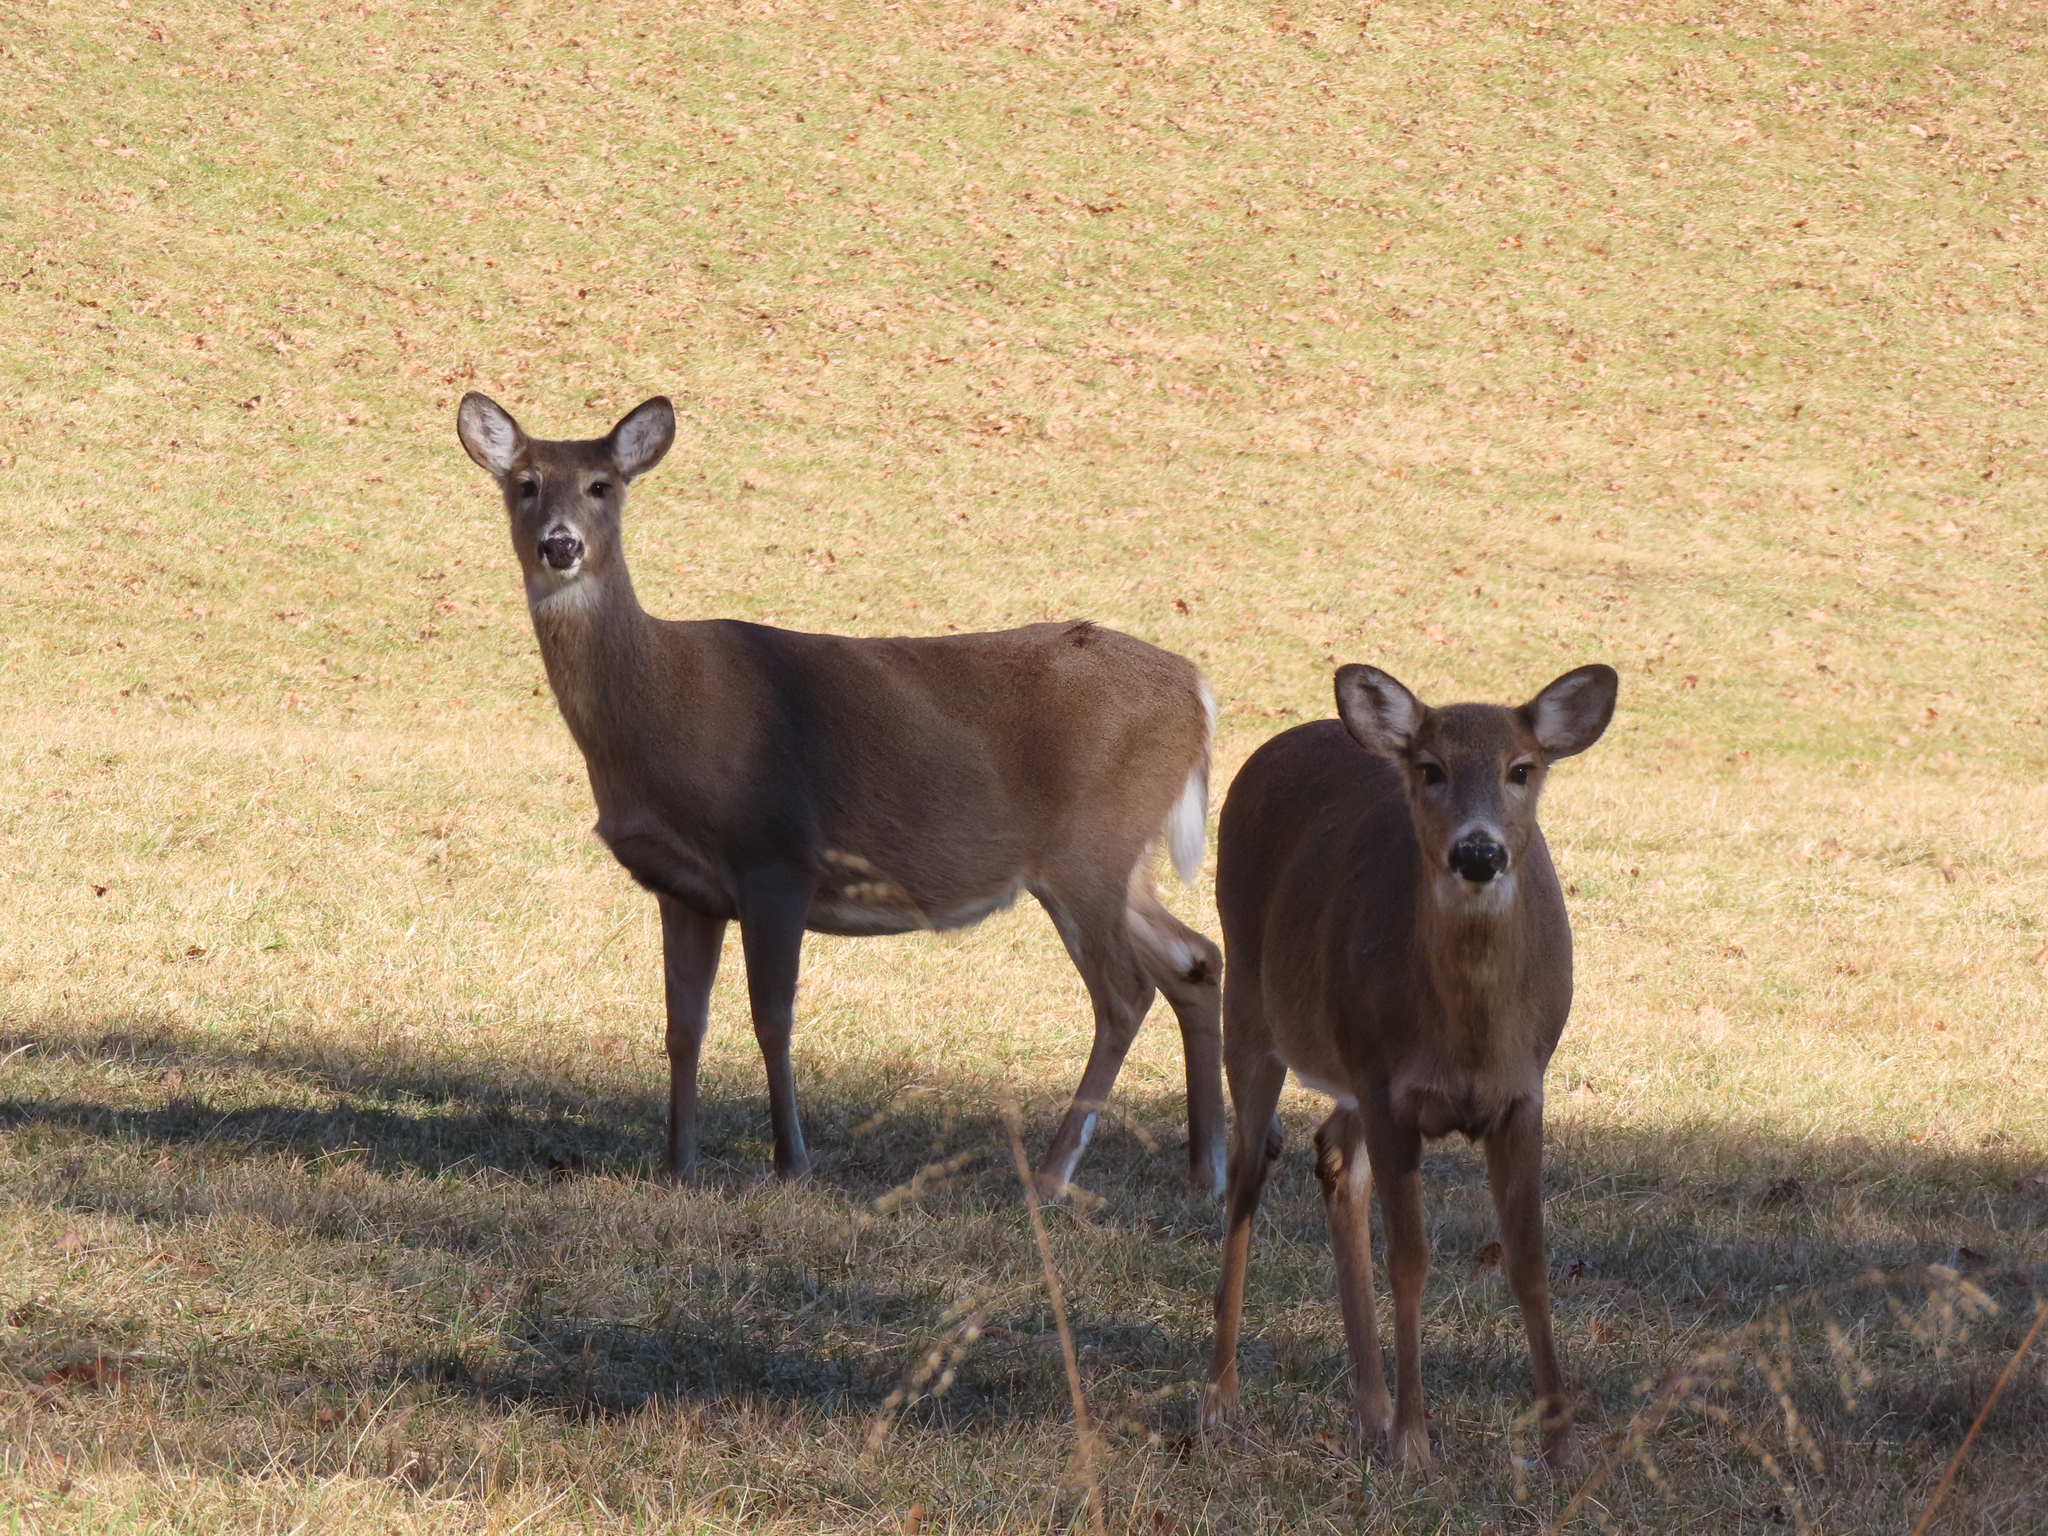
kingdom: Animalia
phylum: Chordata
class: Mammalia
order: Artiodactyla
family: Cervidae
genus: Odocoileus
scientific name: Odocoileus virginianus
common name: White-tailed deer
